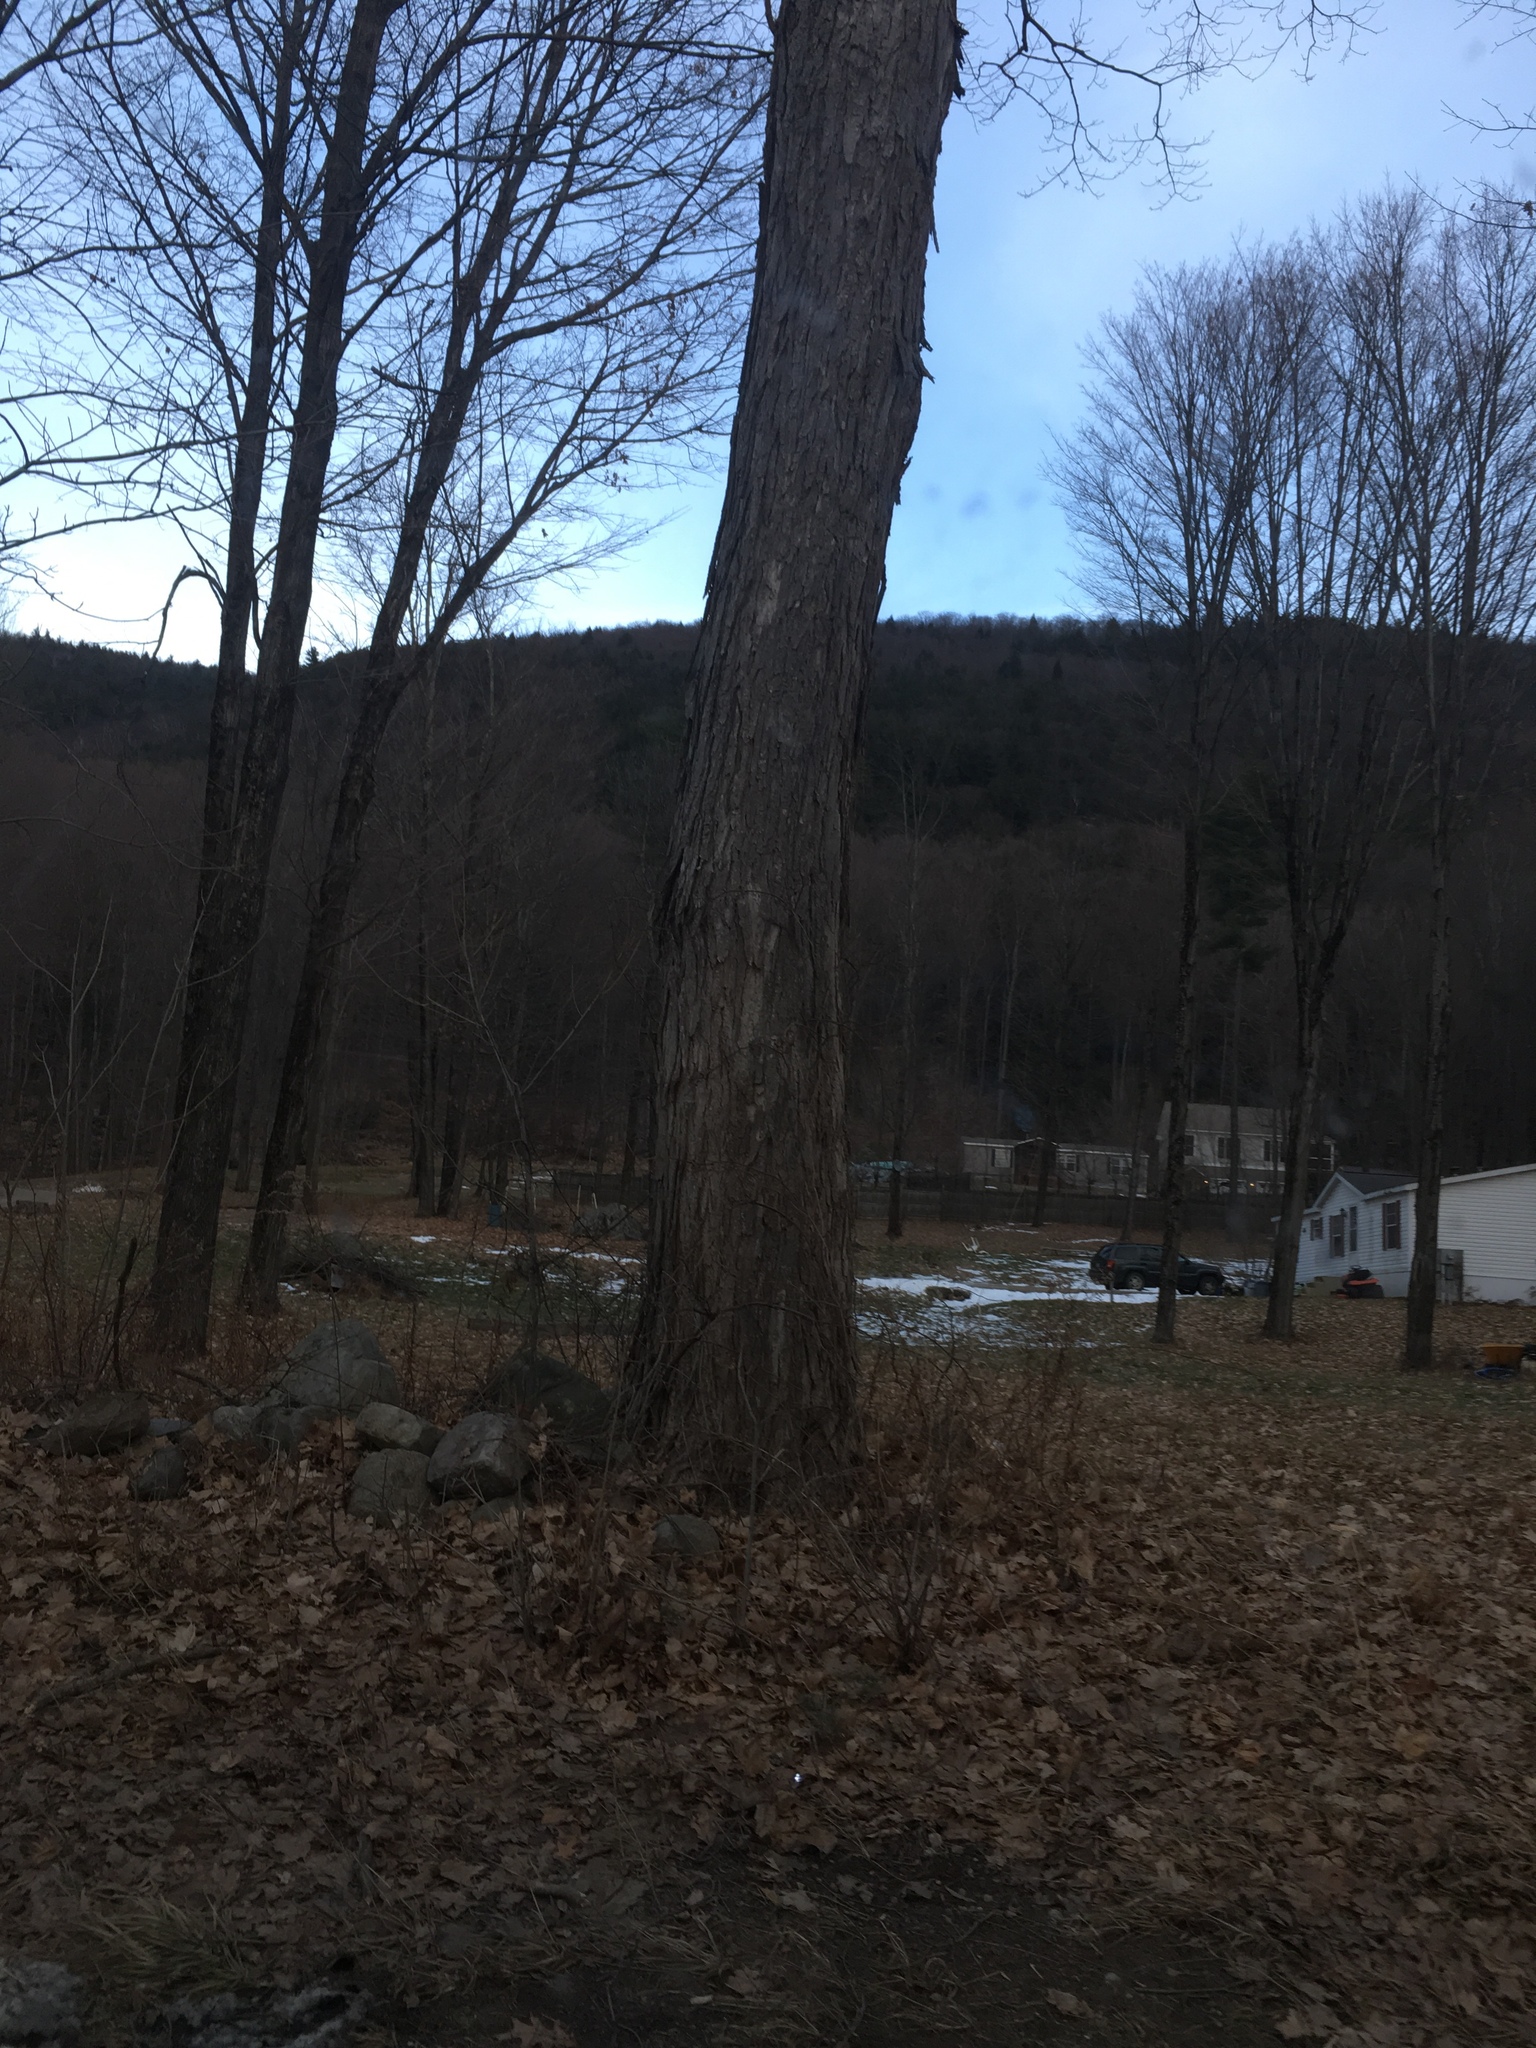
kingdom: Plantae
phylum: Tracheophyta
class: Magnoliopsida
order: Sapindales
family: Sapindaceae
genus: Acer
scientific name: Acer saccharum
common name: Sugar maple
